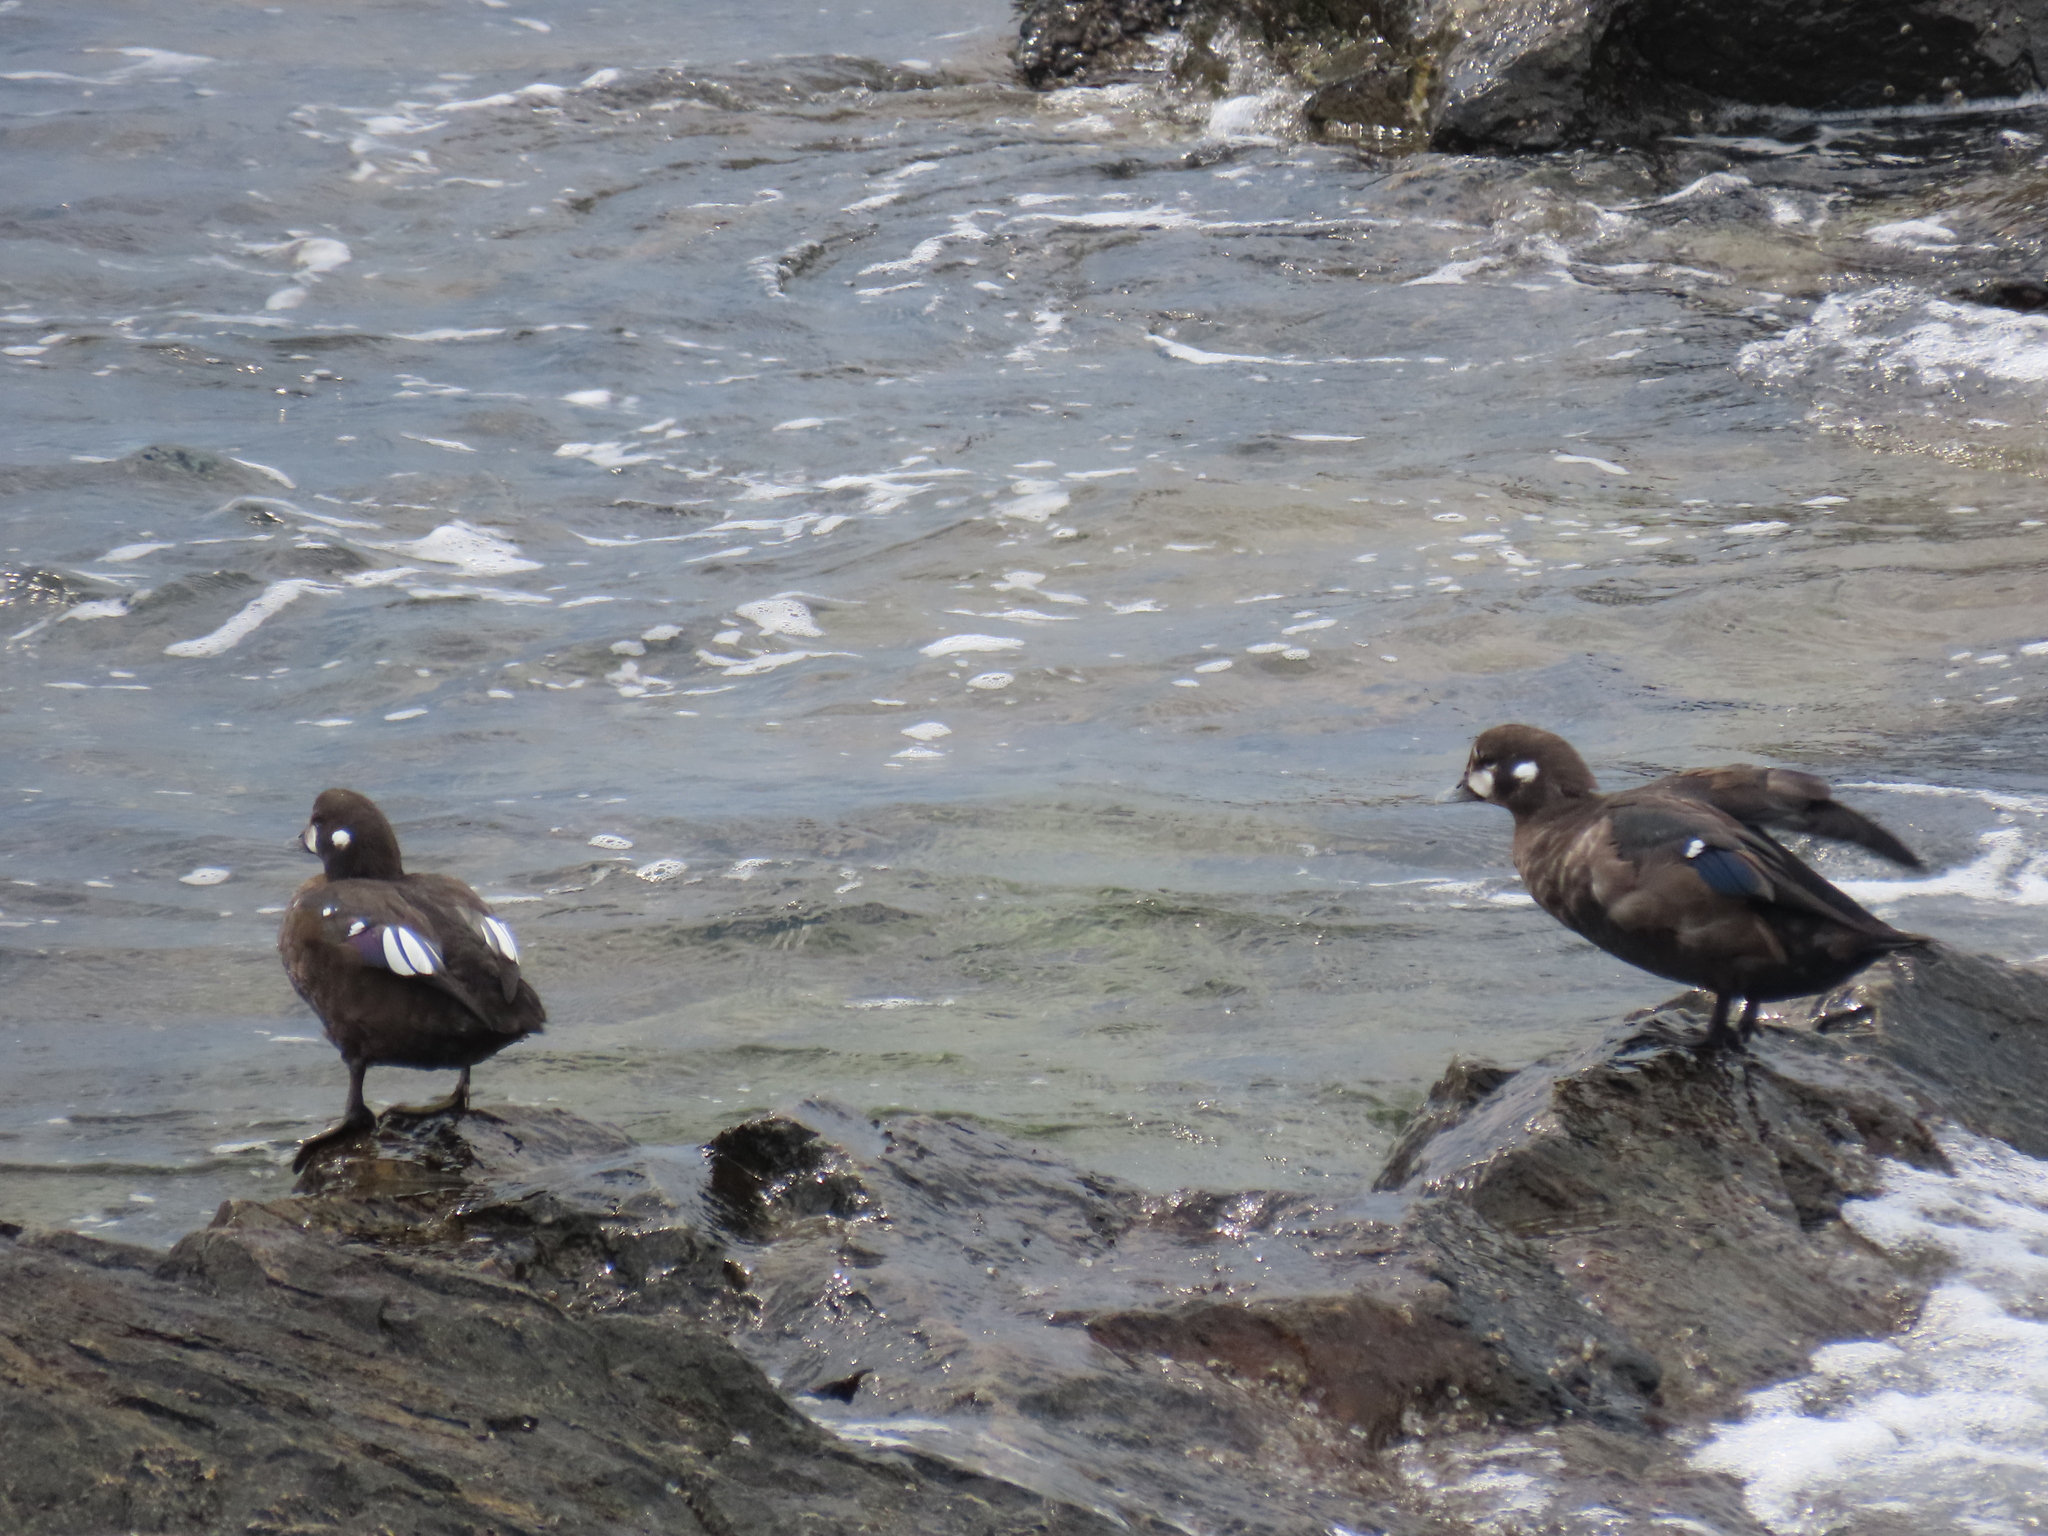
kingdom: Animalia
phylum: Chordata
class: Aves
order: Anseriformes
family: Anatidae
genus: Histrionicus
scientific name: Histrionicus histrionicus
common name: Harlequin duck
